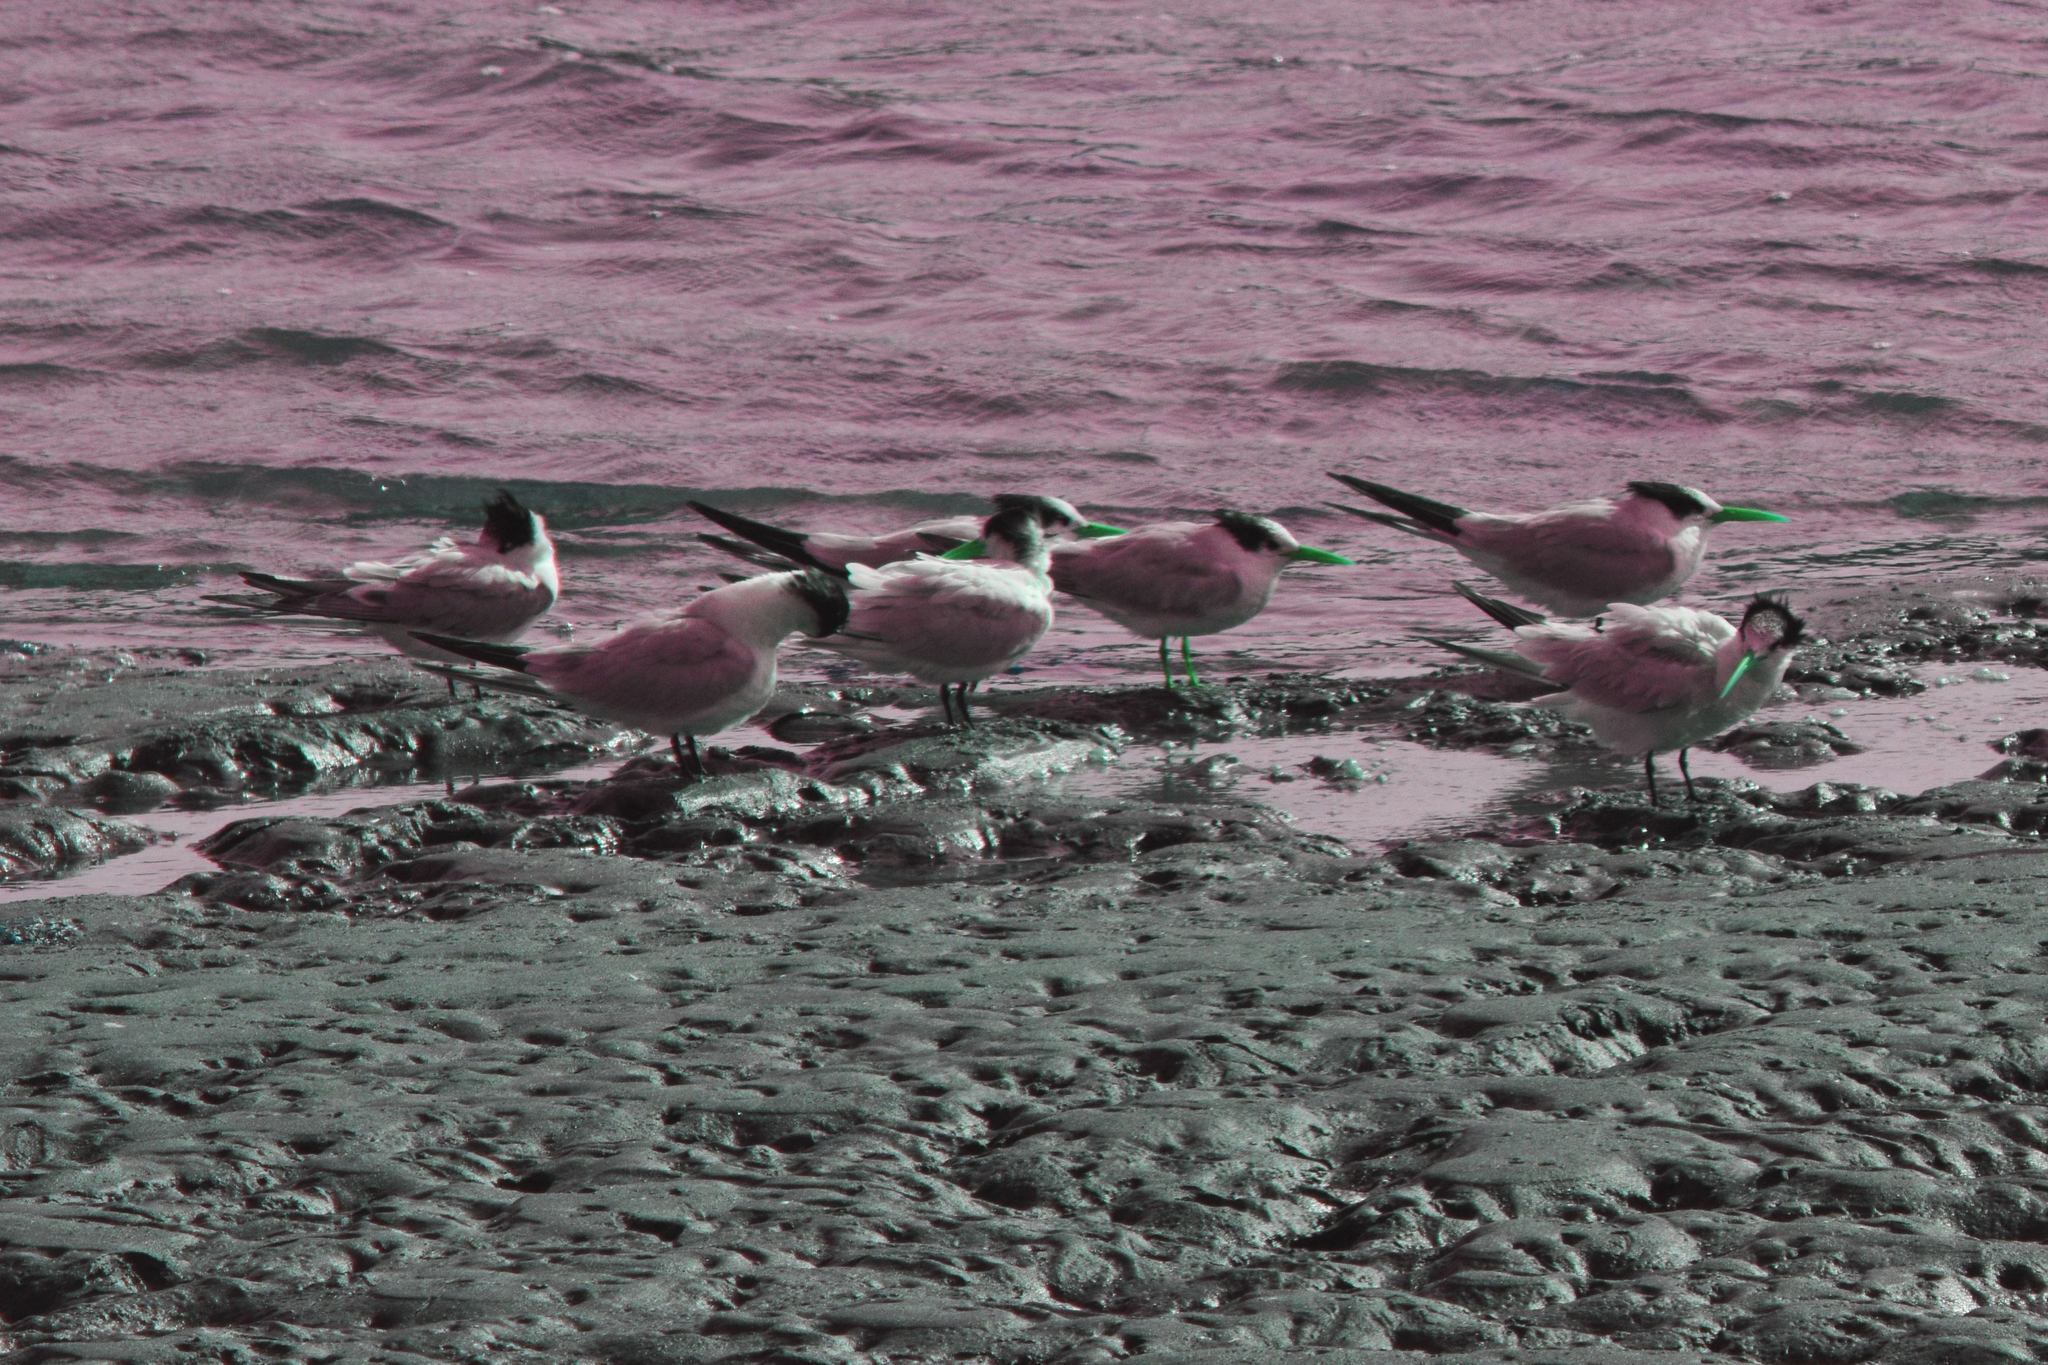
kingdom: Animalia
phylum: Chordata
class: Aves
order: Charadriiformes
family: Laridae
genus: Thalasseus
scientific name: Thalasseus elegans
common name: Elegant tern
